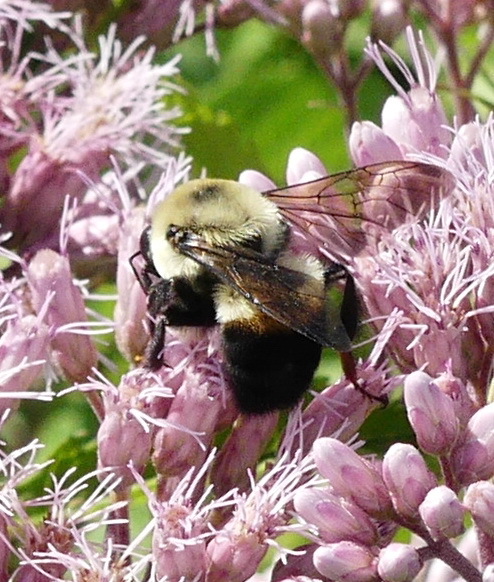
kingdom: Animalia
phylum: Arthropoda
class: Insecta
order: Hymenoptera
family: Apidae
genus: Bombus
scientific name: Bombus griseocollis
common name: Brown-belted bumble bee
